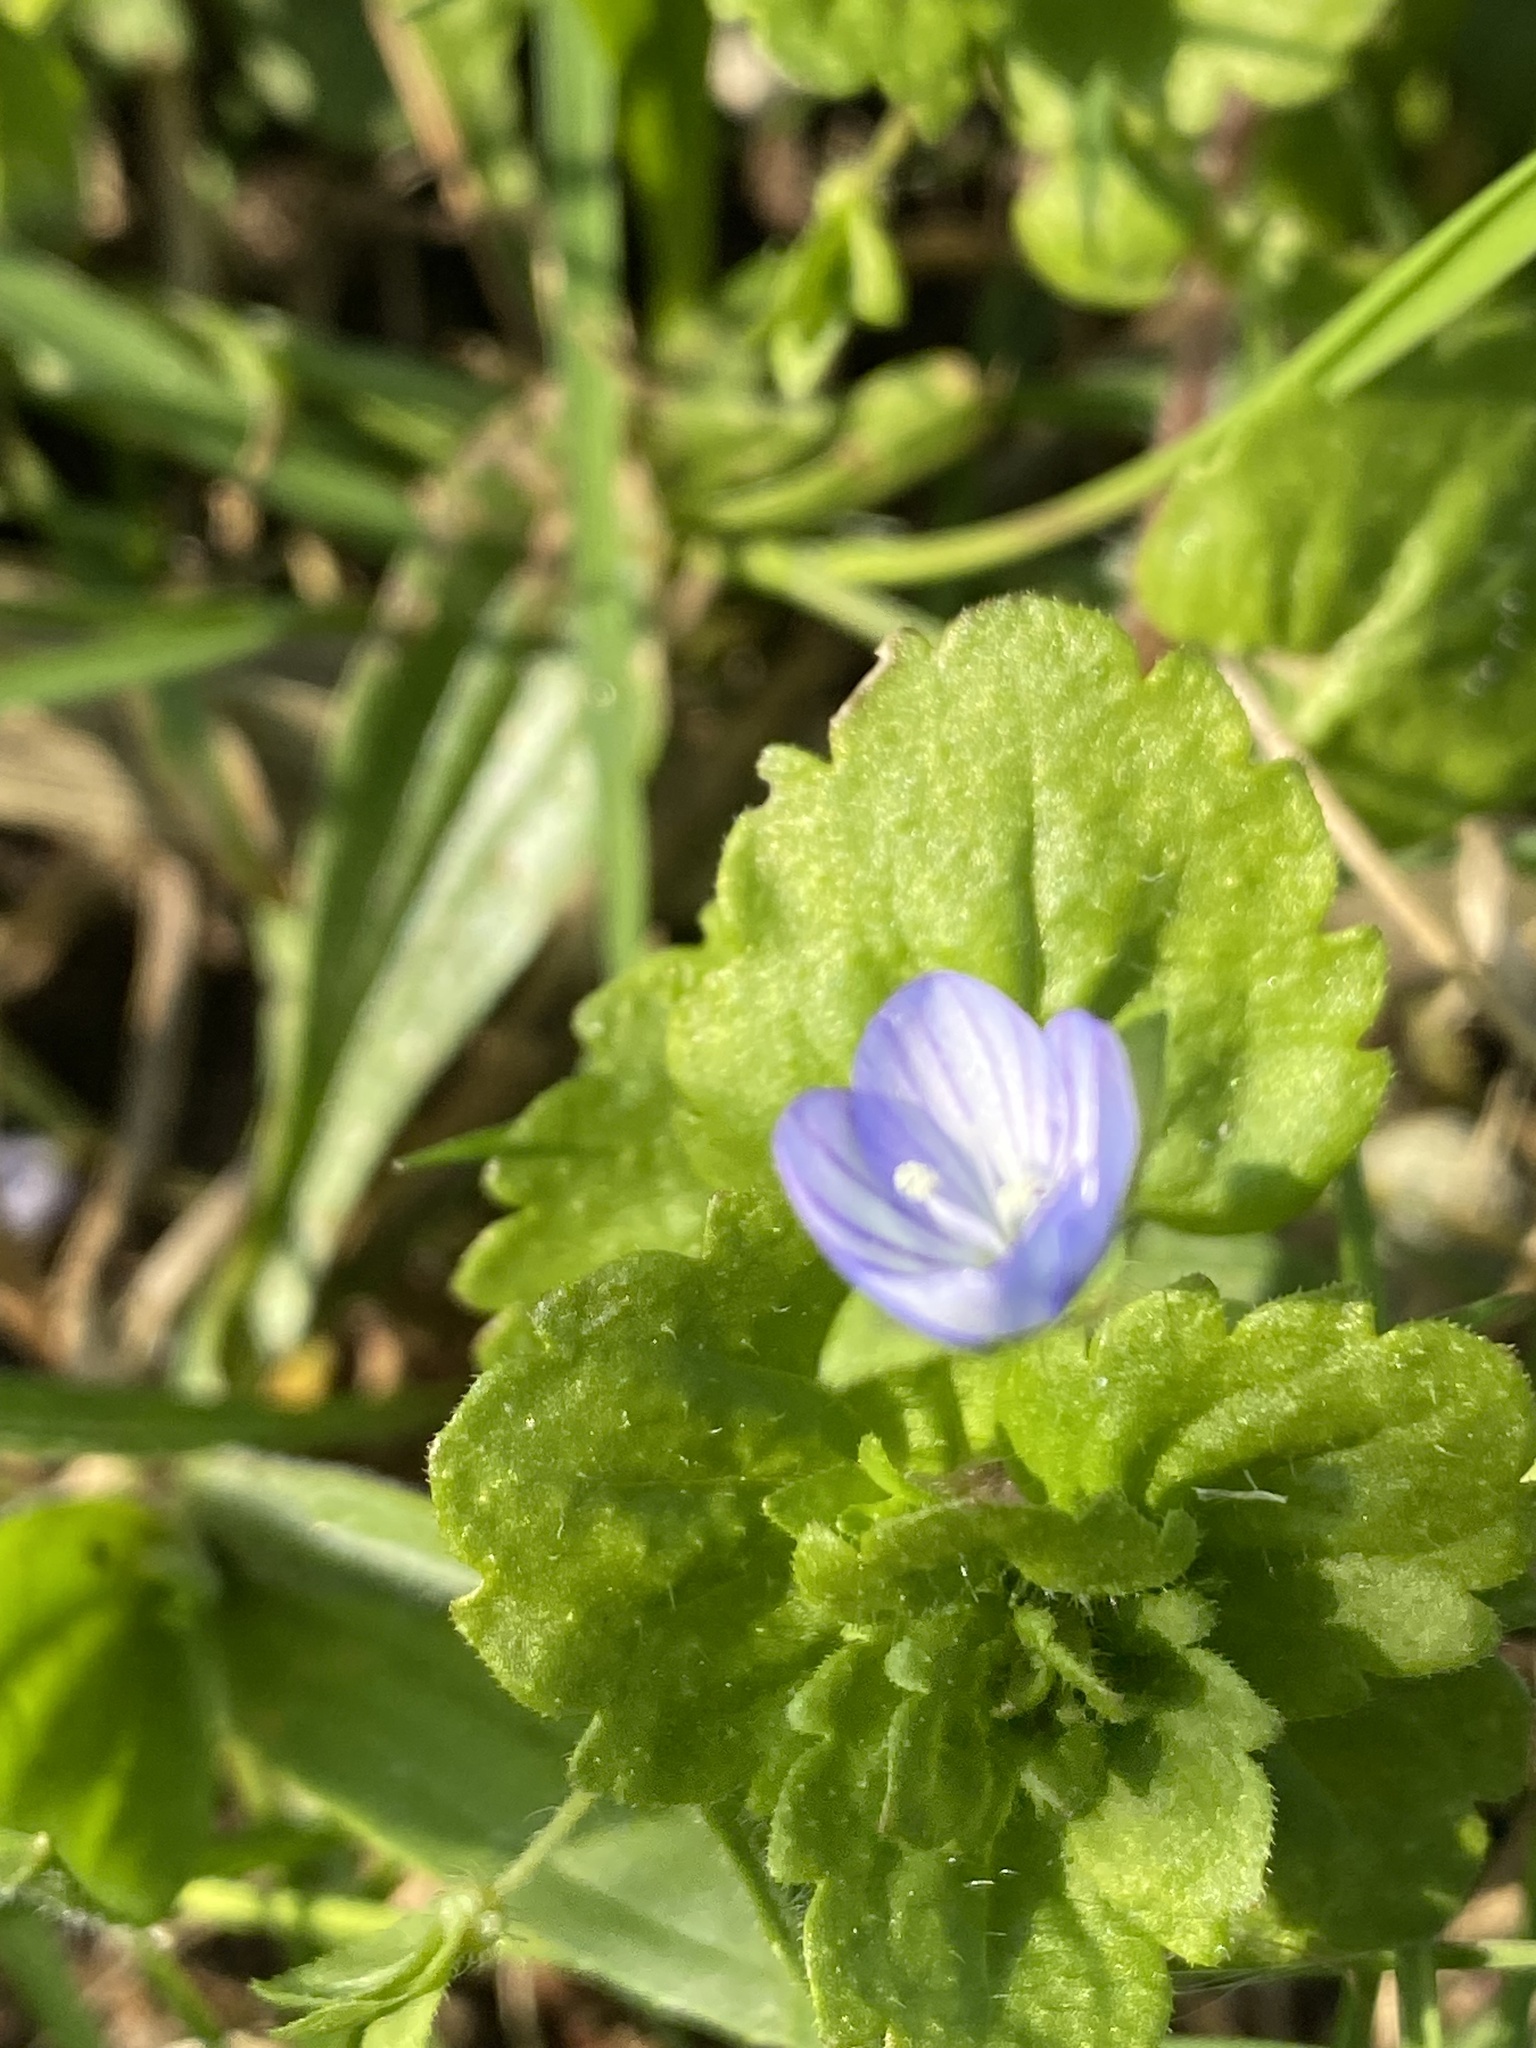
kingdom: Plantae
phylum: Tracheophyta
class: Magnoliopsida
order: Lamiales
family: Plantaginaceae
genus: Veronica
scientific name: Veronica persica
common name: Common field-speedwell
